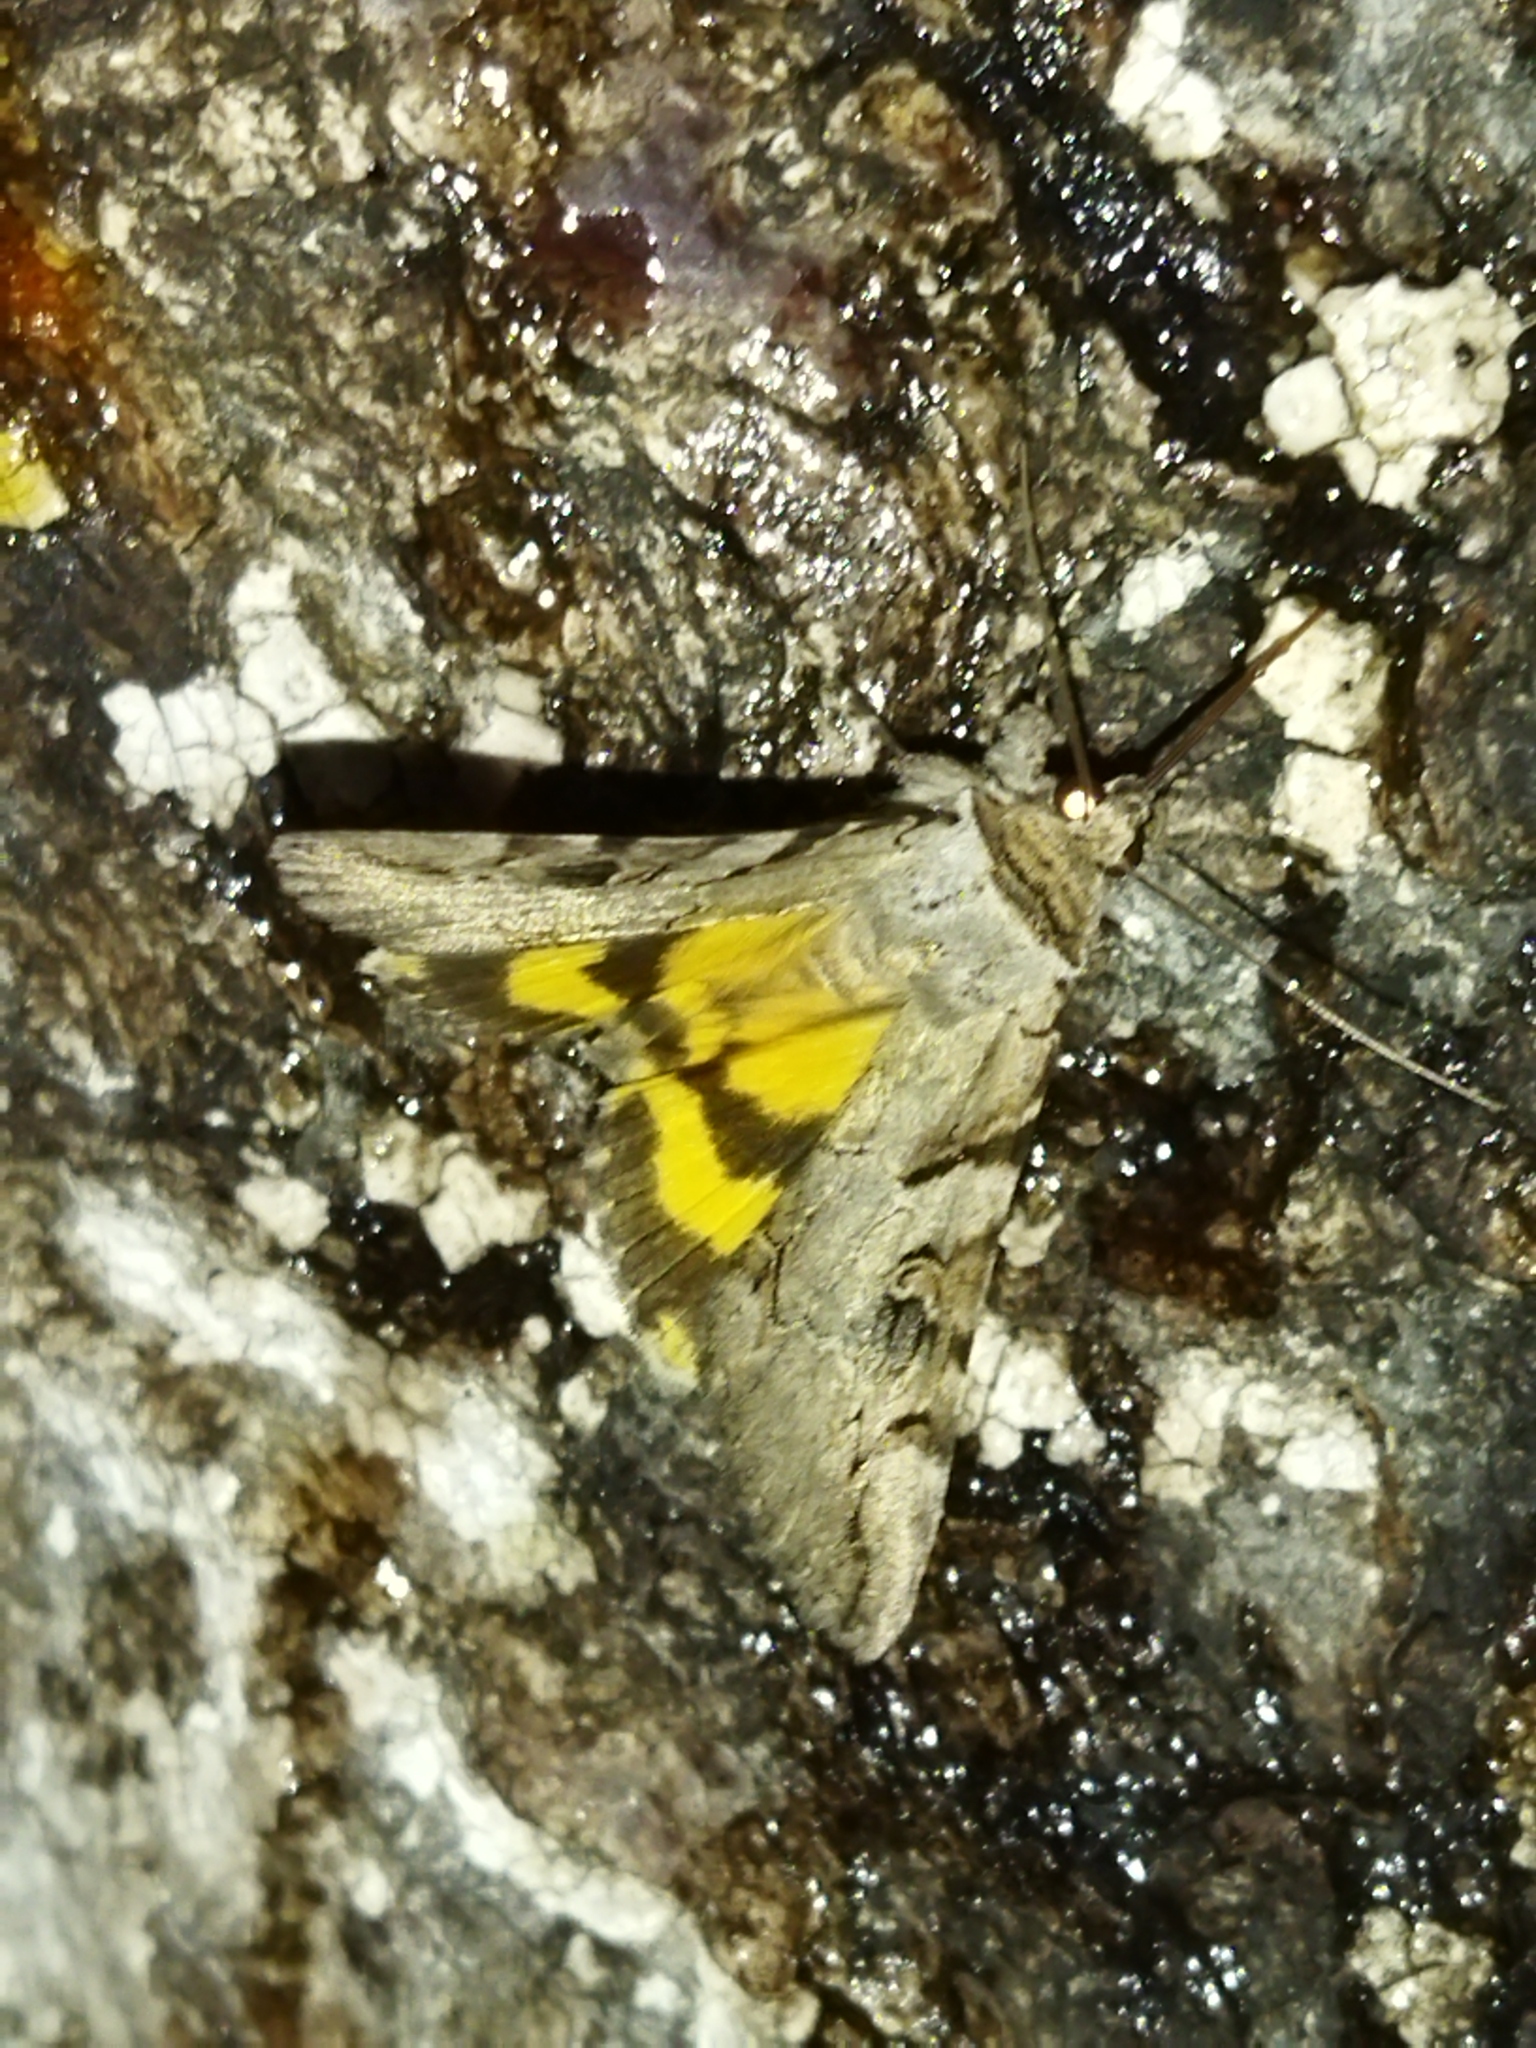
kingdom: Animalia
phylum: Arthropoda
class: Insecta
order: Lepidoptera
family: Erebidae
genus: Catocala
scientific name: Catocala hymenaea
